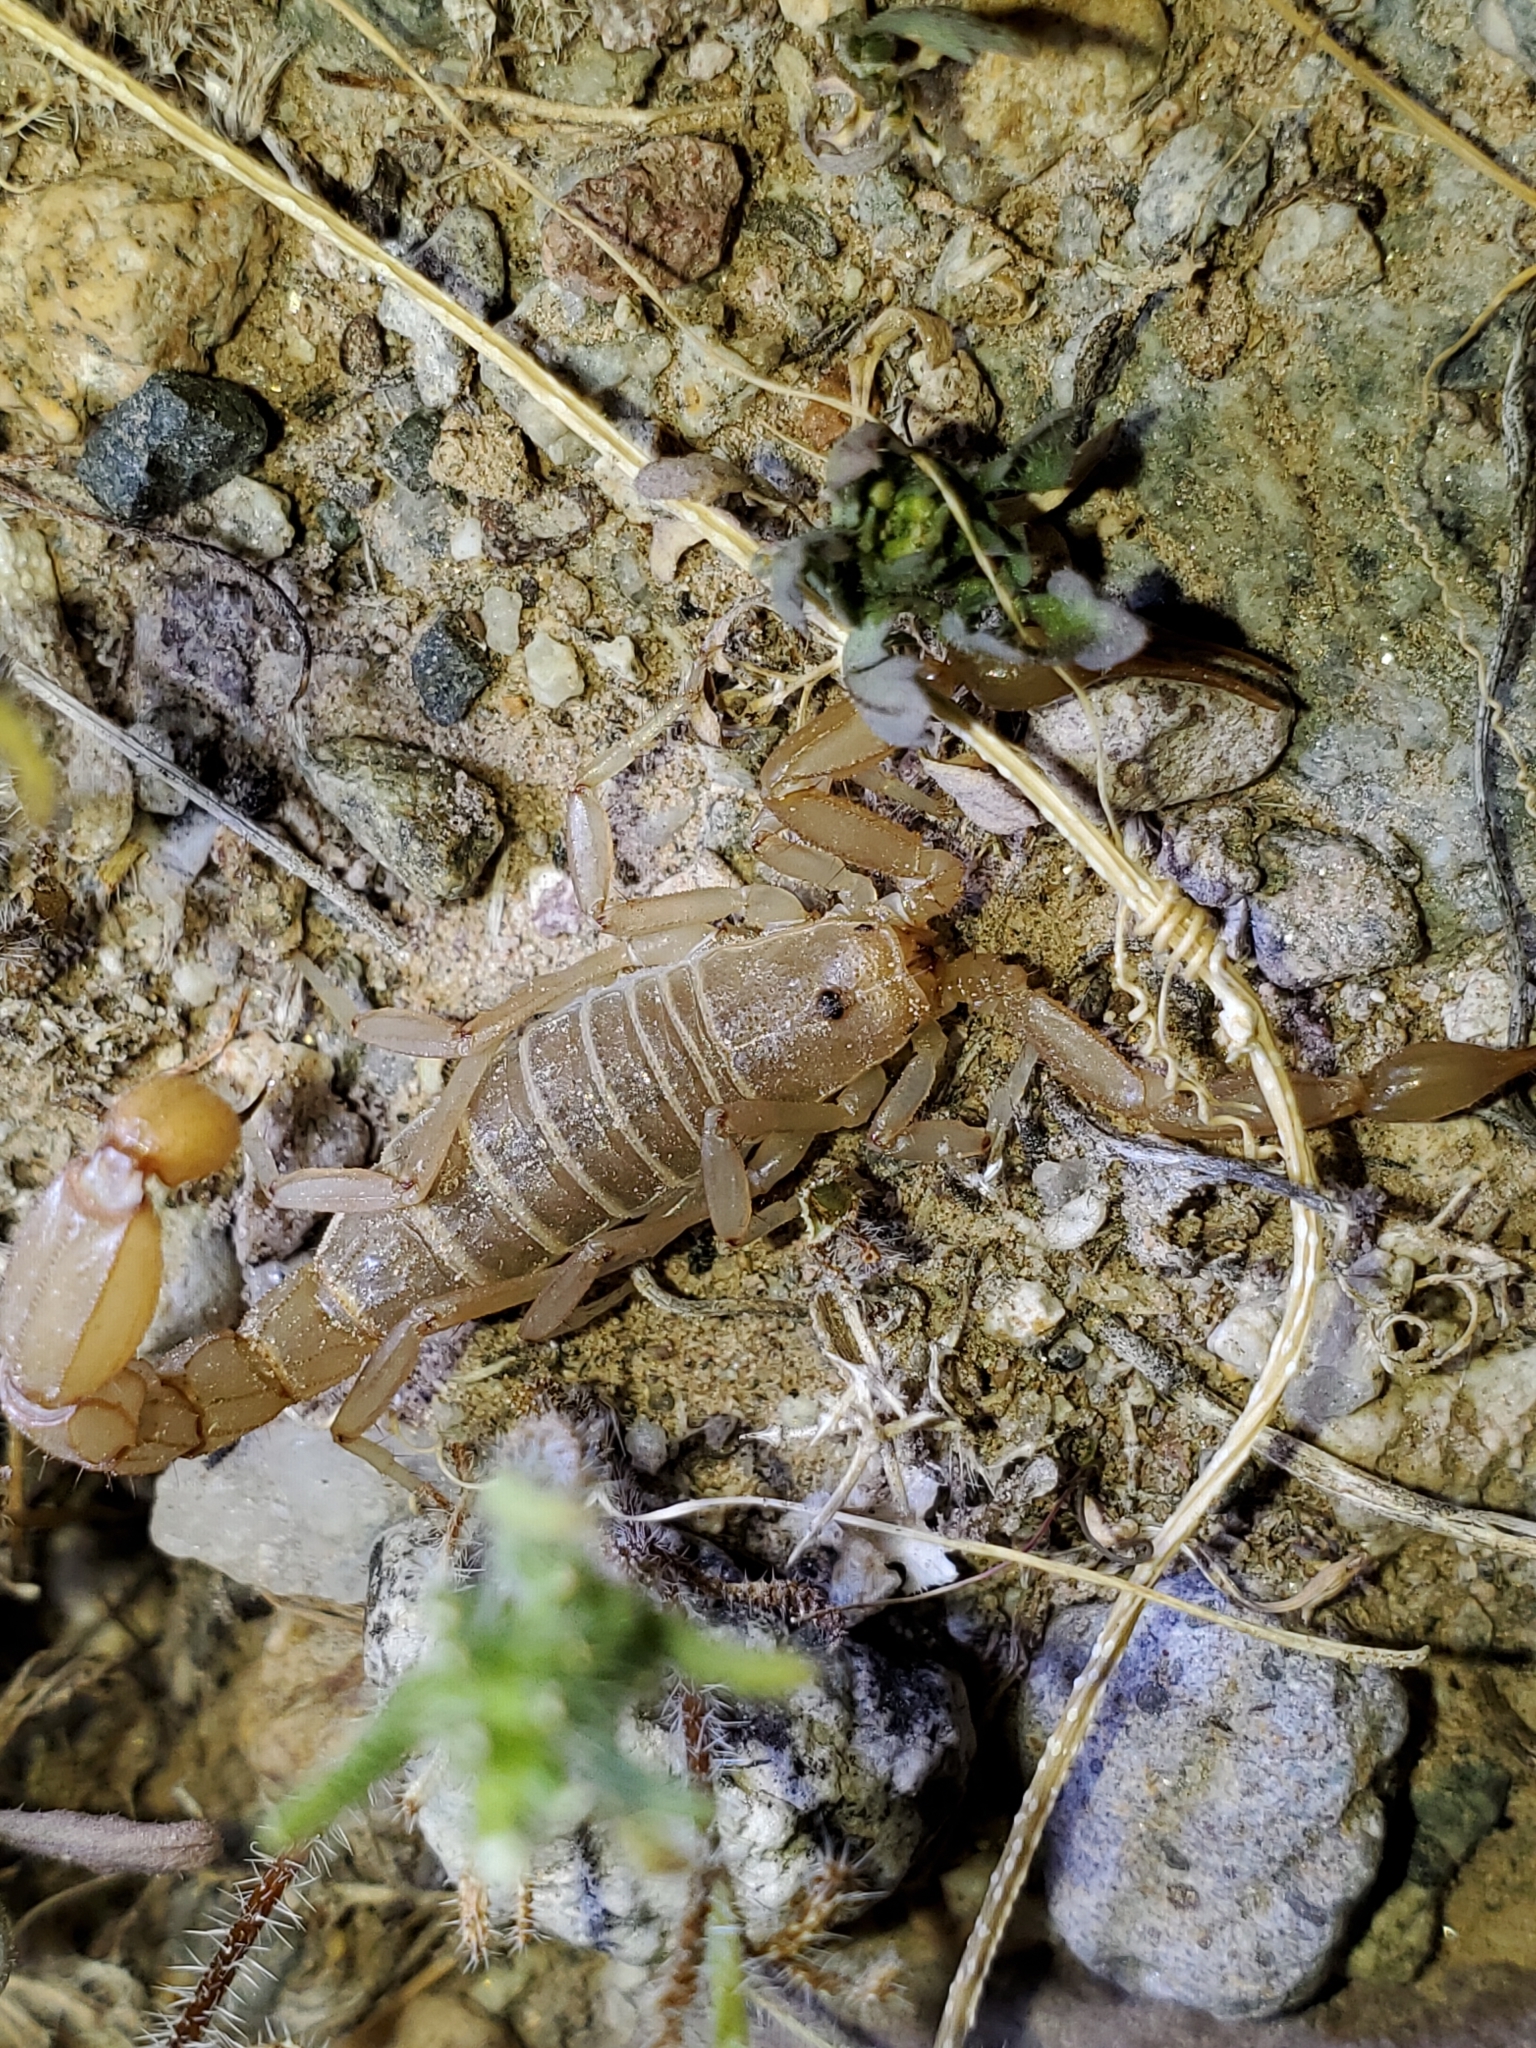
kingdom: Animalia
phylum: Arthropoda
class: Arachnida
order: Scorpiones
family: Vaejovidae
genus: Paravaejovis
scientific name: Paravaejovis waeringi
